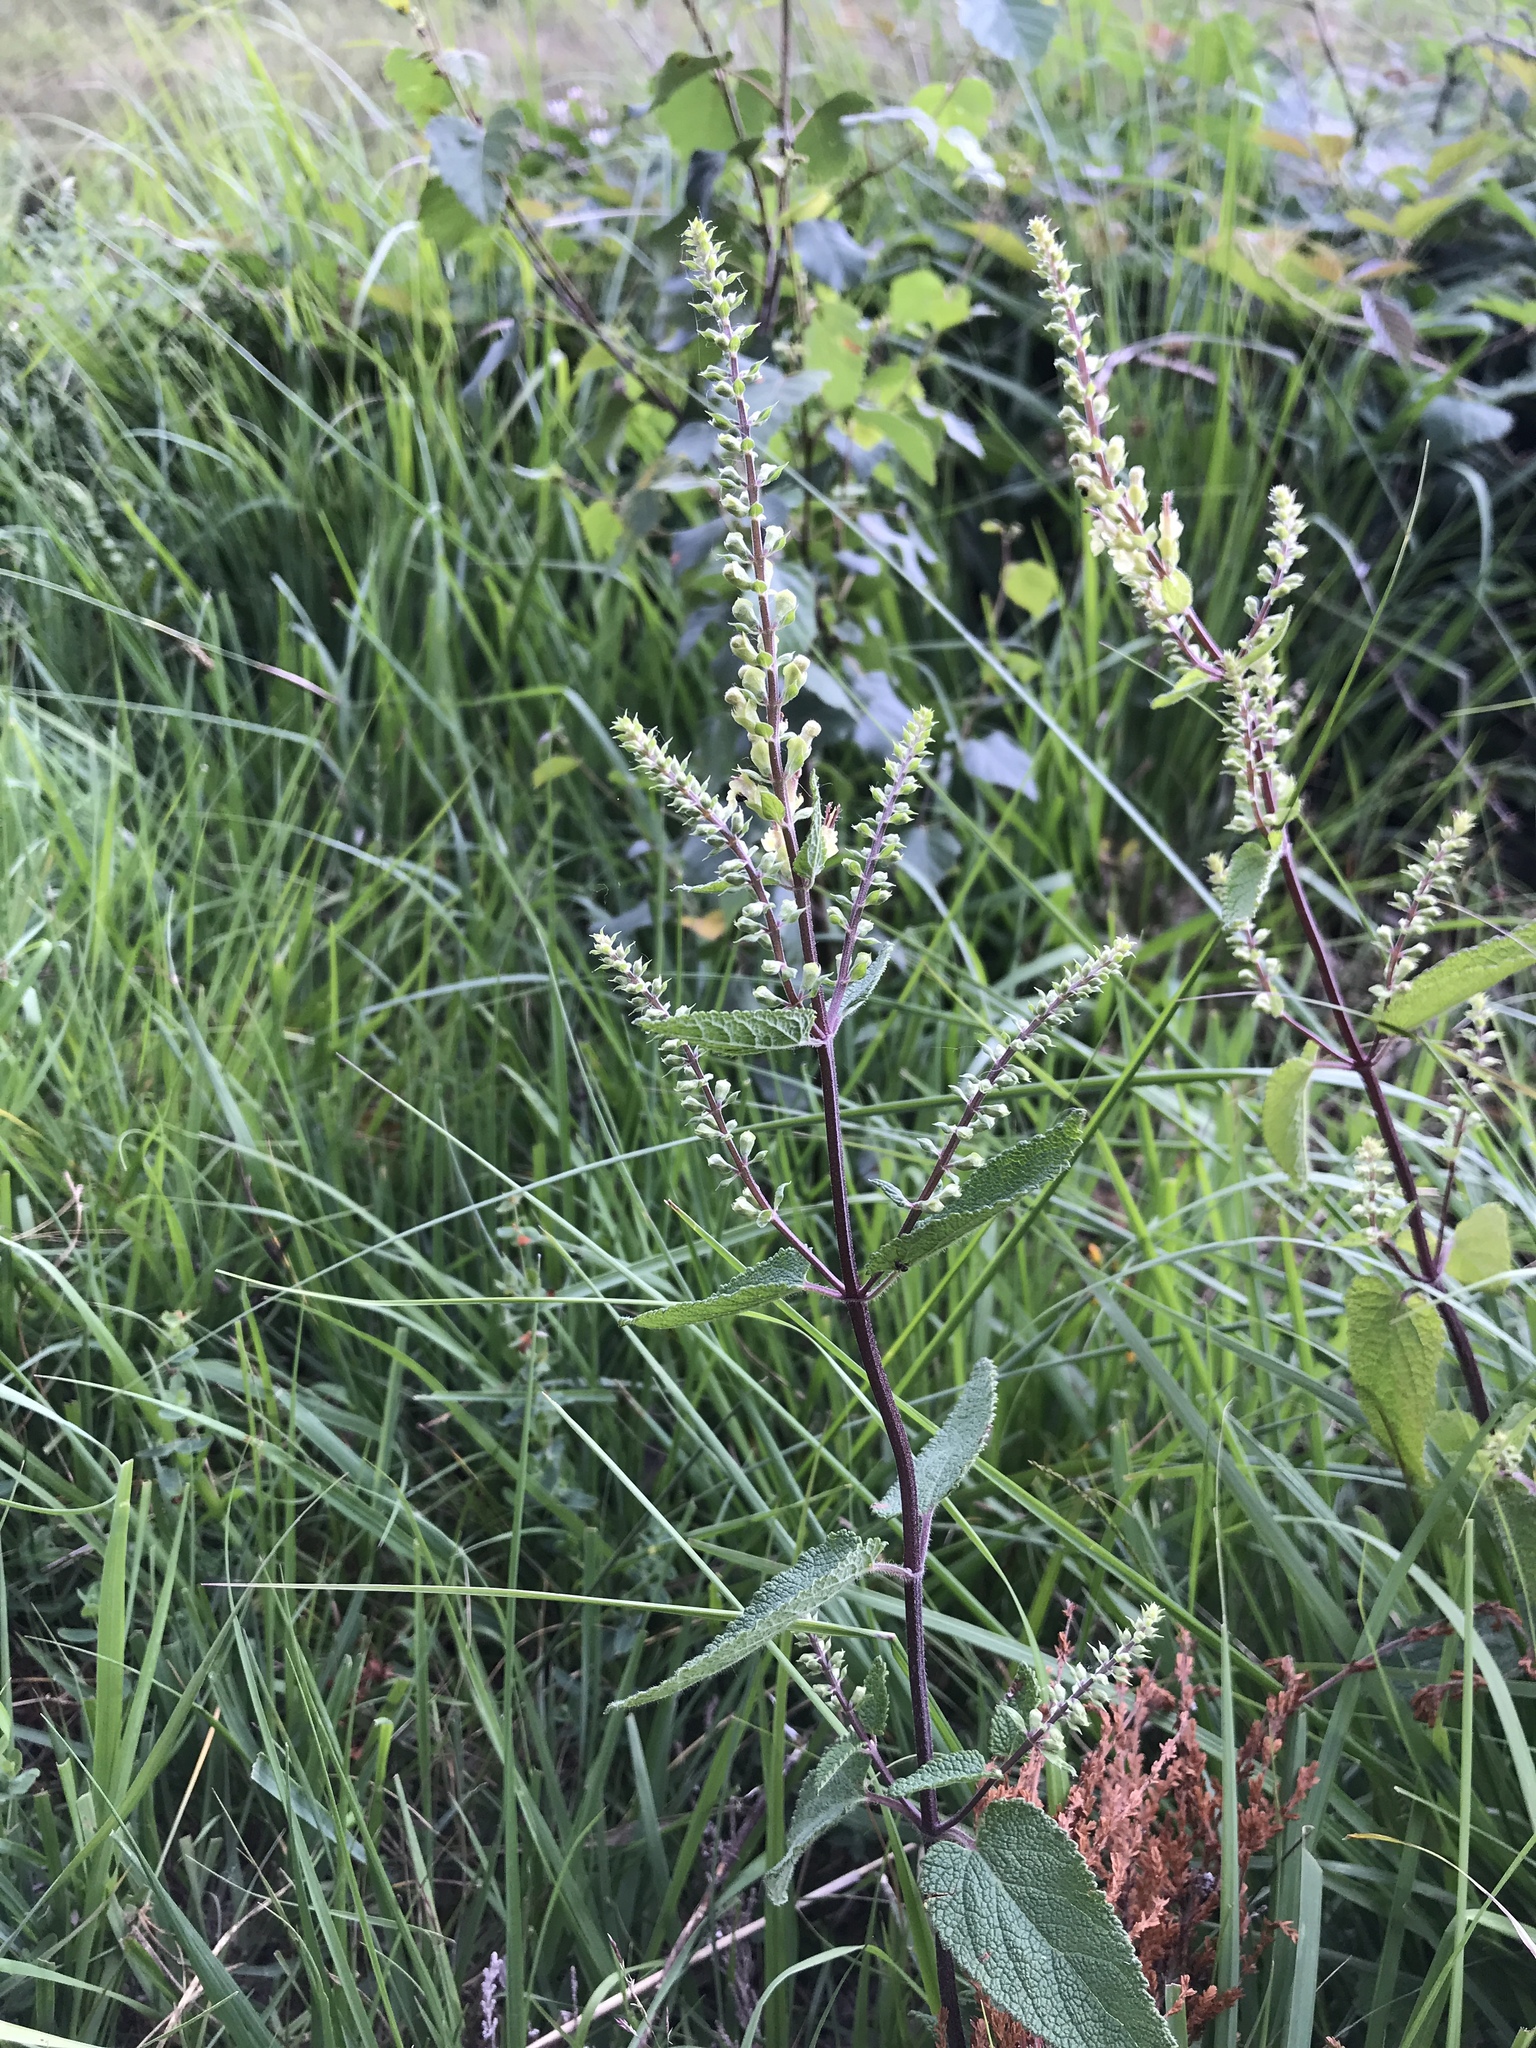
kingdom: Plantae
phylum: Tracheophyta
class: Magnoliopsida
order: Lamiales
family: Lamiaceae
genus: Teucrium
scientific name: Teucrium scorodonia
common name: Woodland germander
